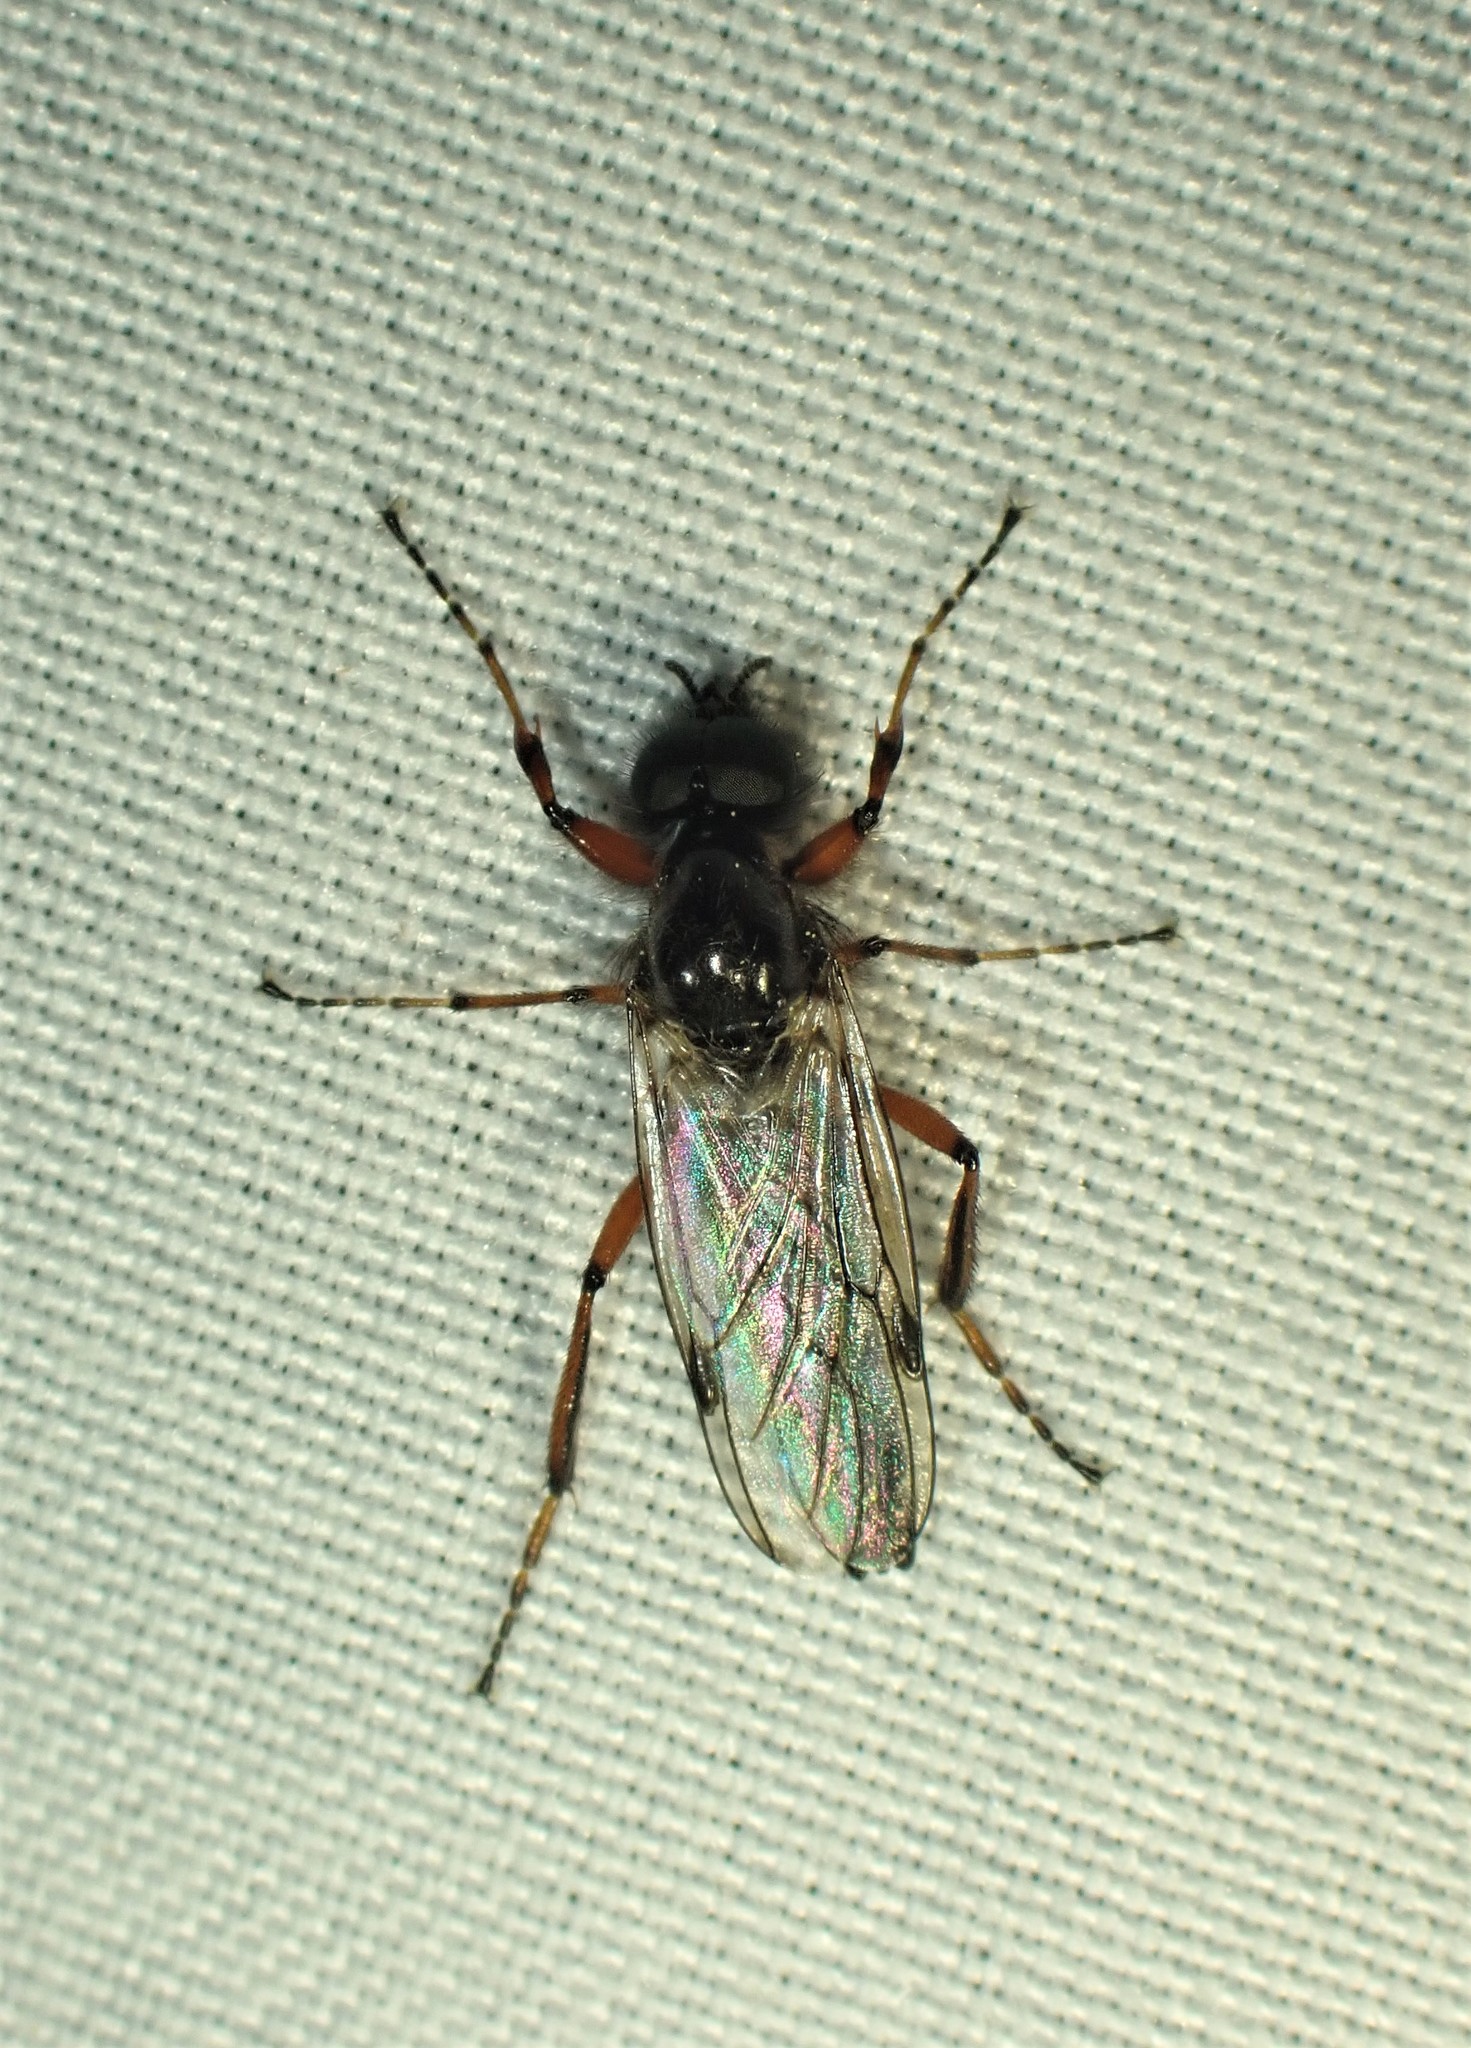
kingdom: Animalia
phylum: Arthropoda
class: Insecta
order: Diptera
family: Bibionidae
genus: Bibio
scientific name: Bibio xanthopus
